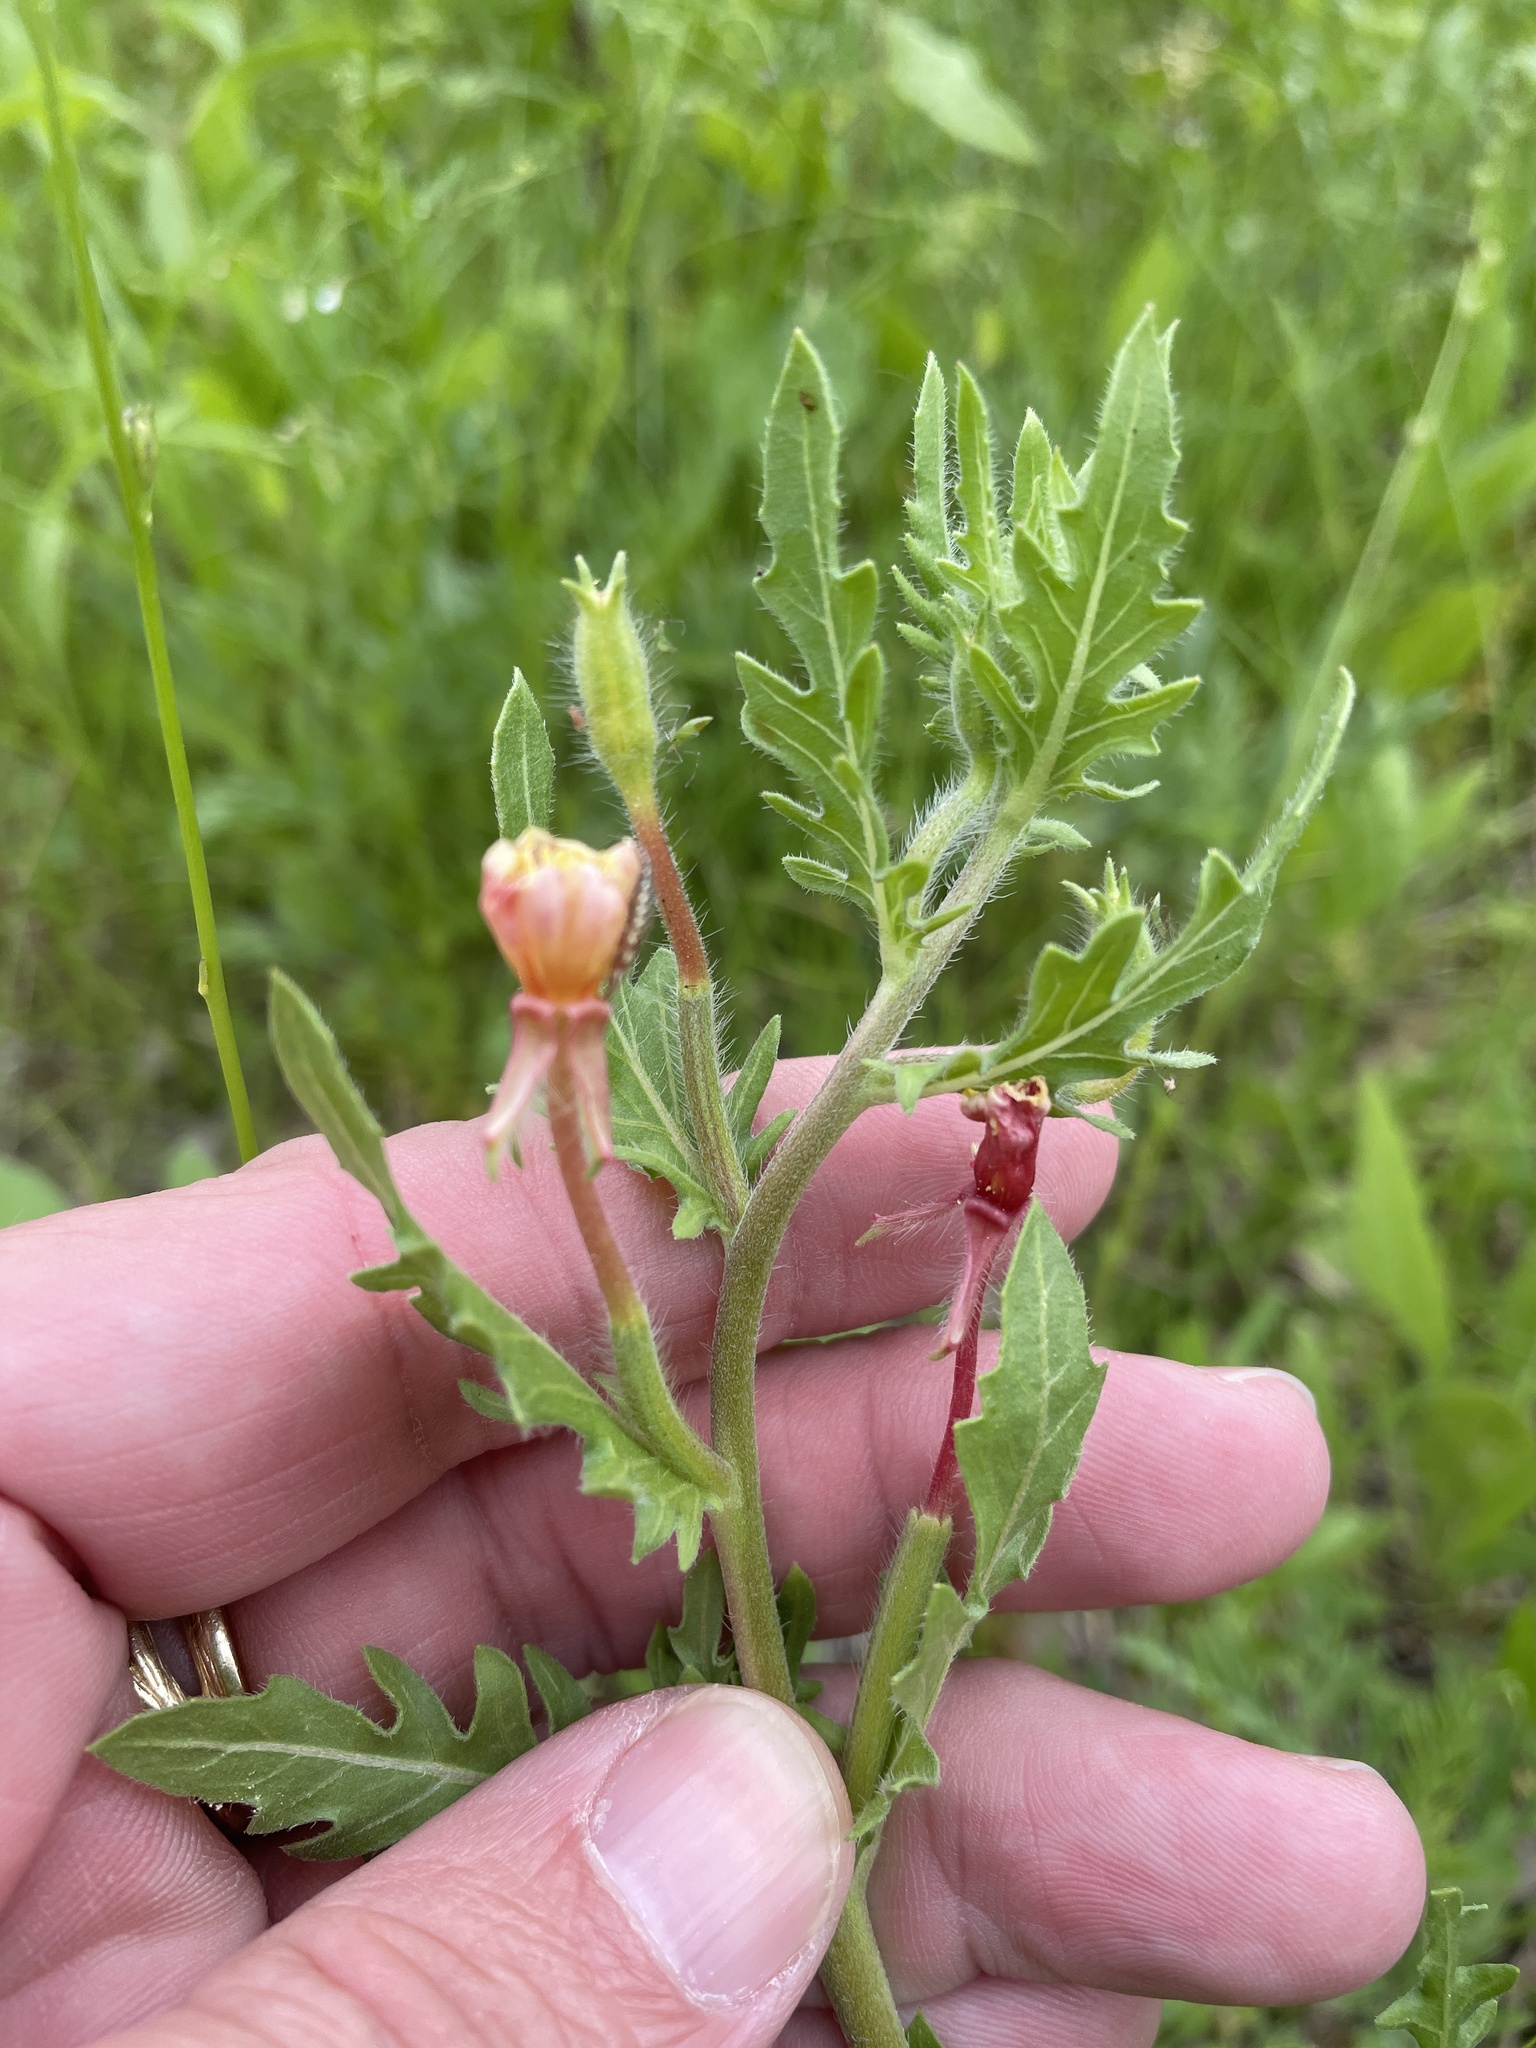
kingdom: Plantae
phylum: Tracheophyta
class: Magnoliopsida
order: Myrtales
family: Onagraceae
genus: Oenothera
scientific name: Oenothera laciniata
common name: Cut-leaved evening-primrose
